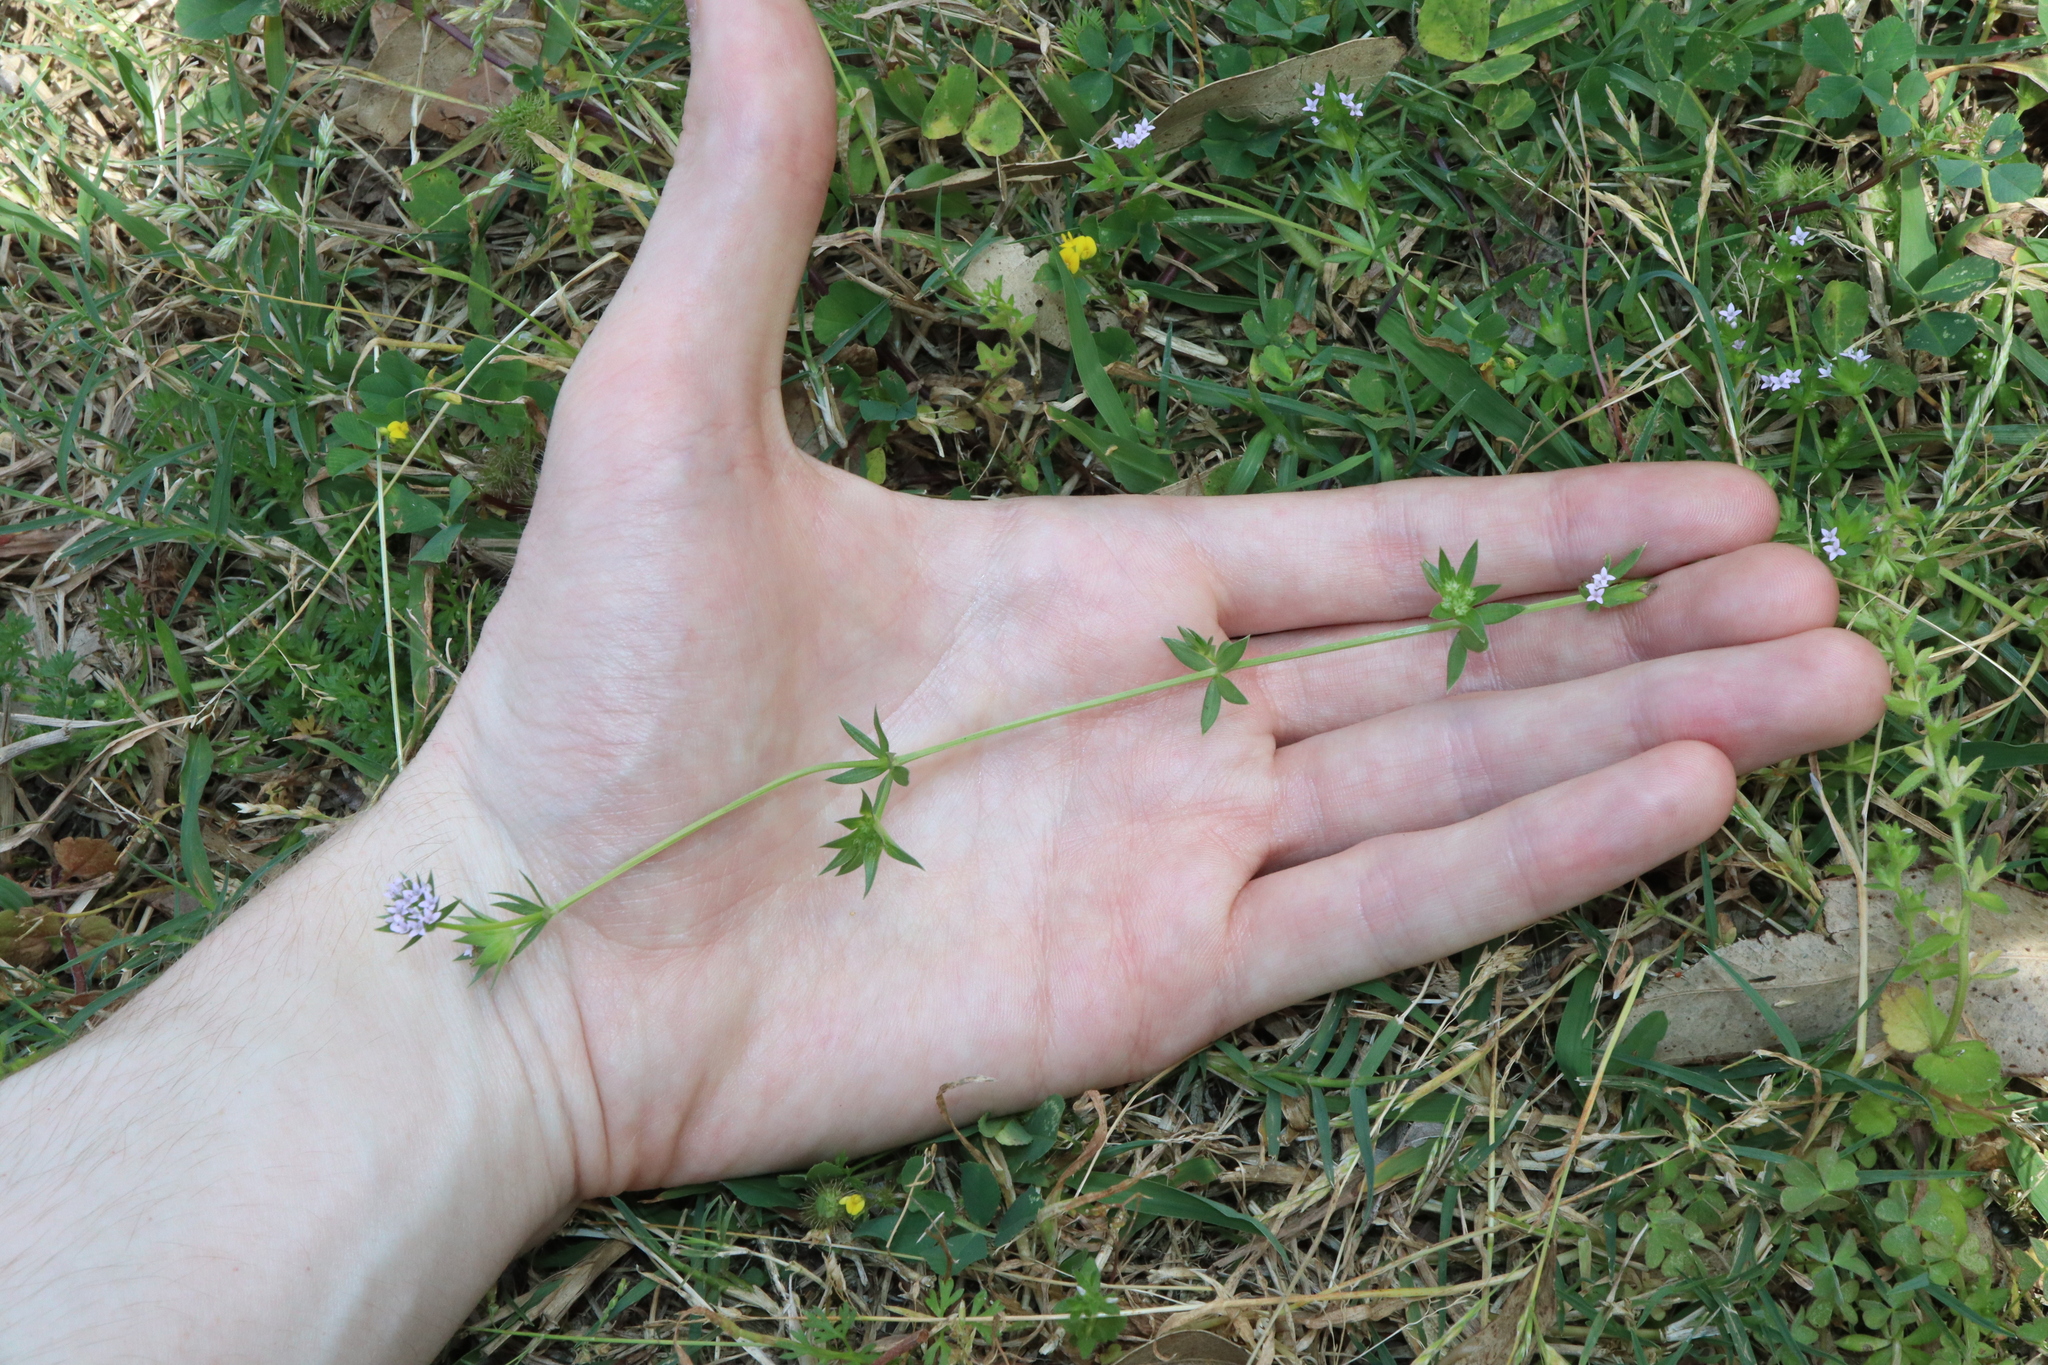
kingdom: Plantae
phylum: Tracheophyta
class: Magnoliopsida
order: Gentianales
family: Rubiaceae
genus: Sherardia
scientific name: Sherardia arvensis
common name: Field madder
